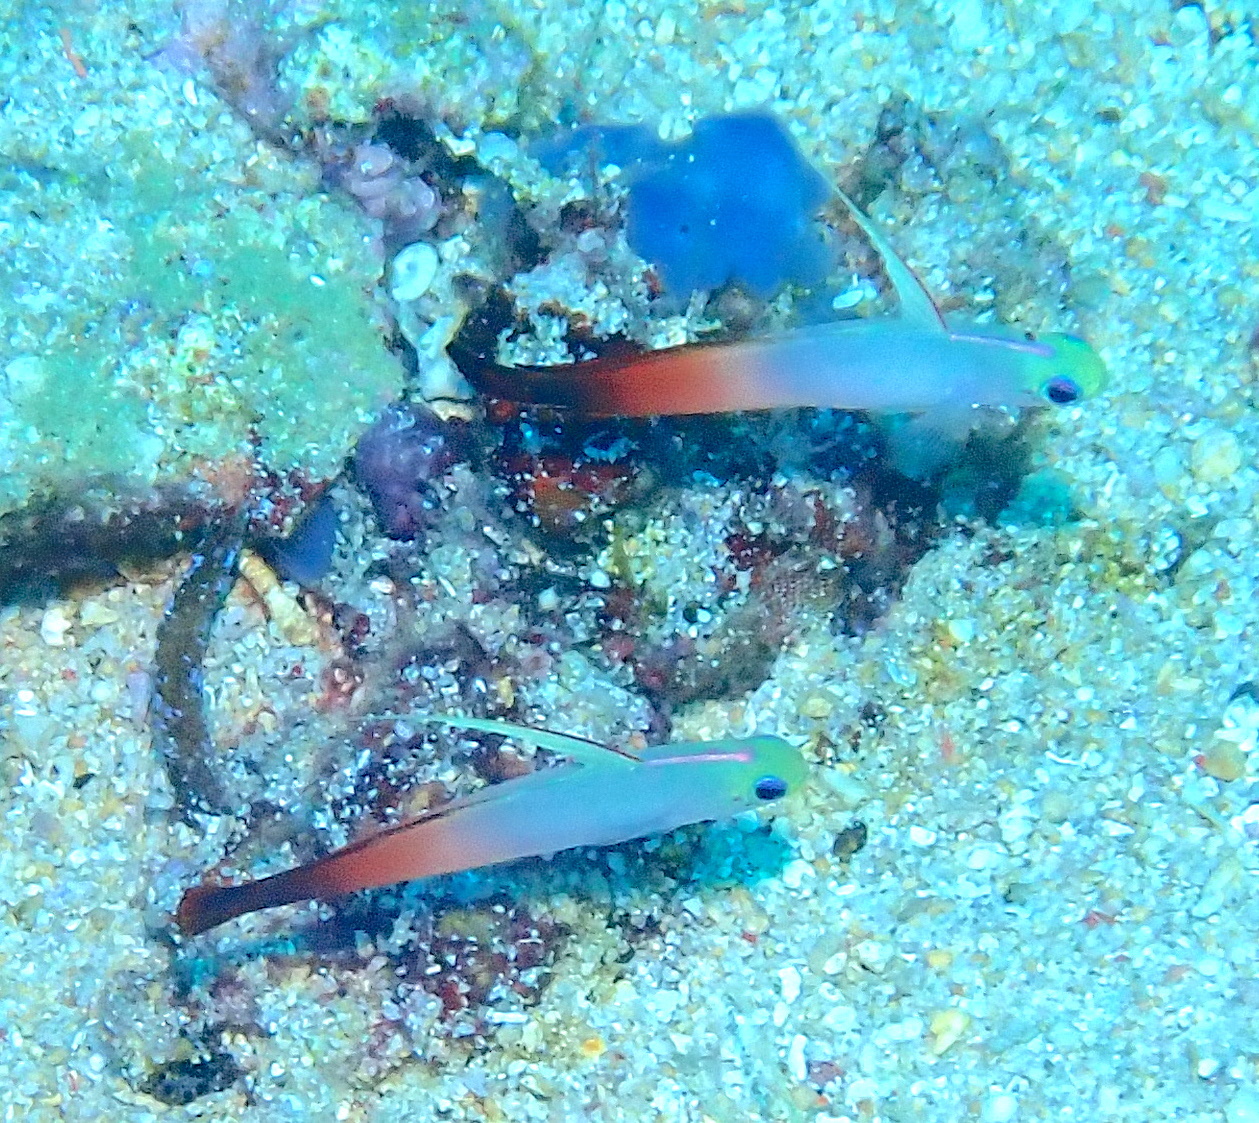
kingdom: Animalia
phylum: Chordata
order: Perciformes
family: Microdesmidae
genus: Nemateleotris
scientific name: Nemateleotris magnifica
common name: Fire goby
